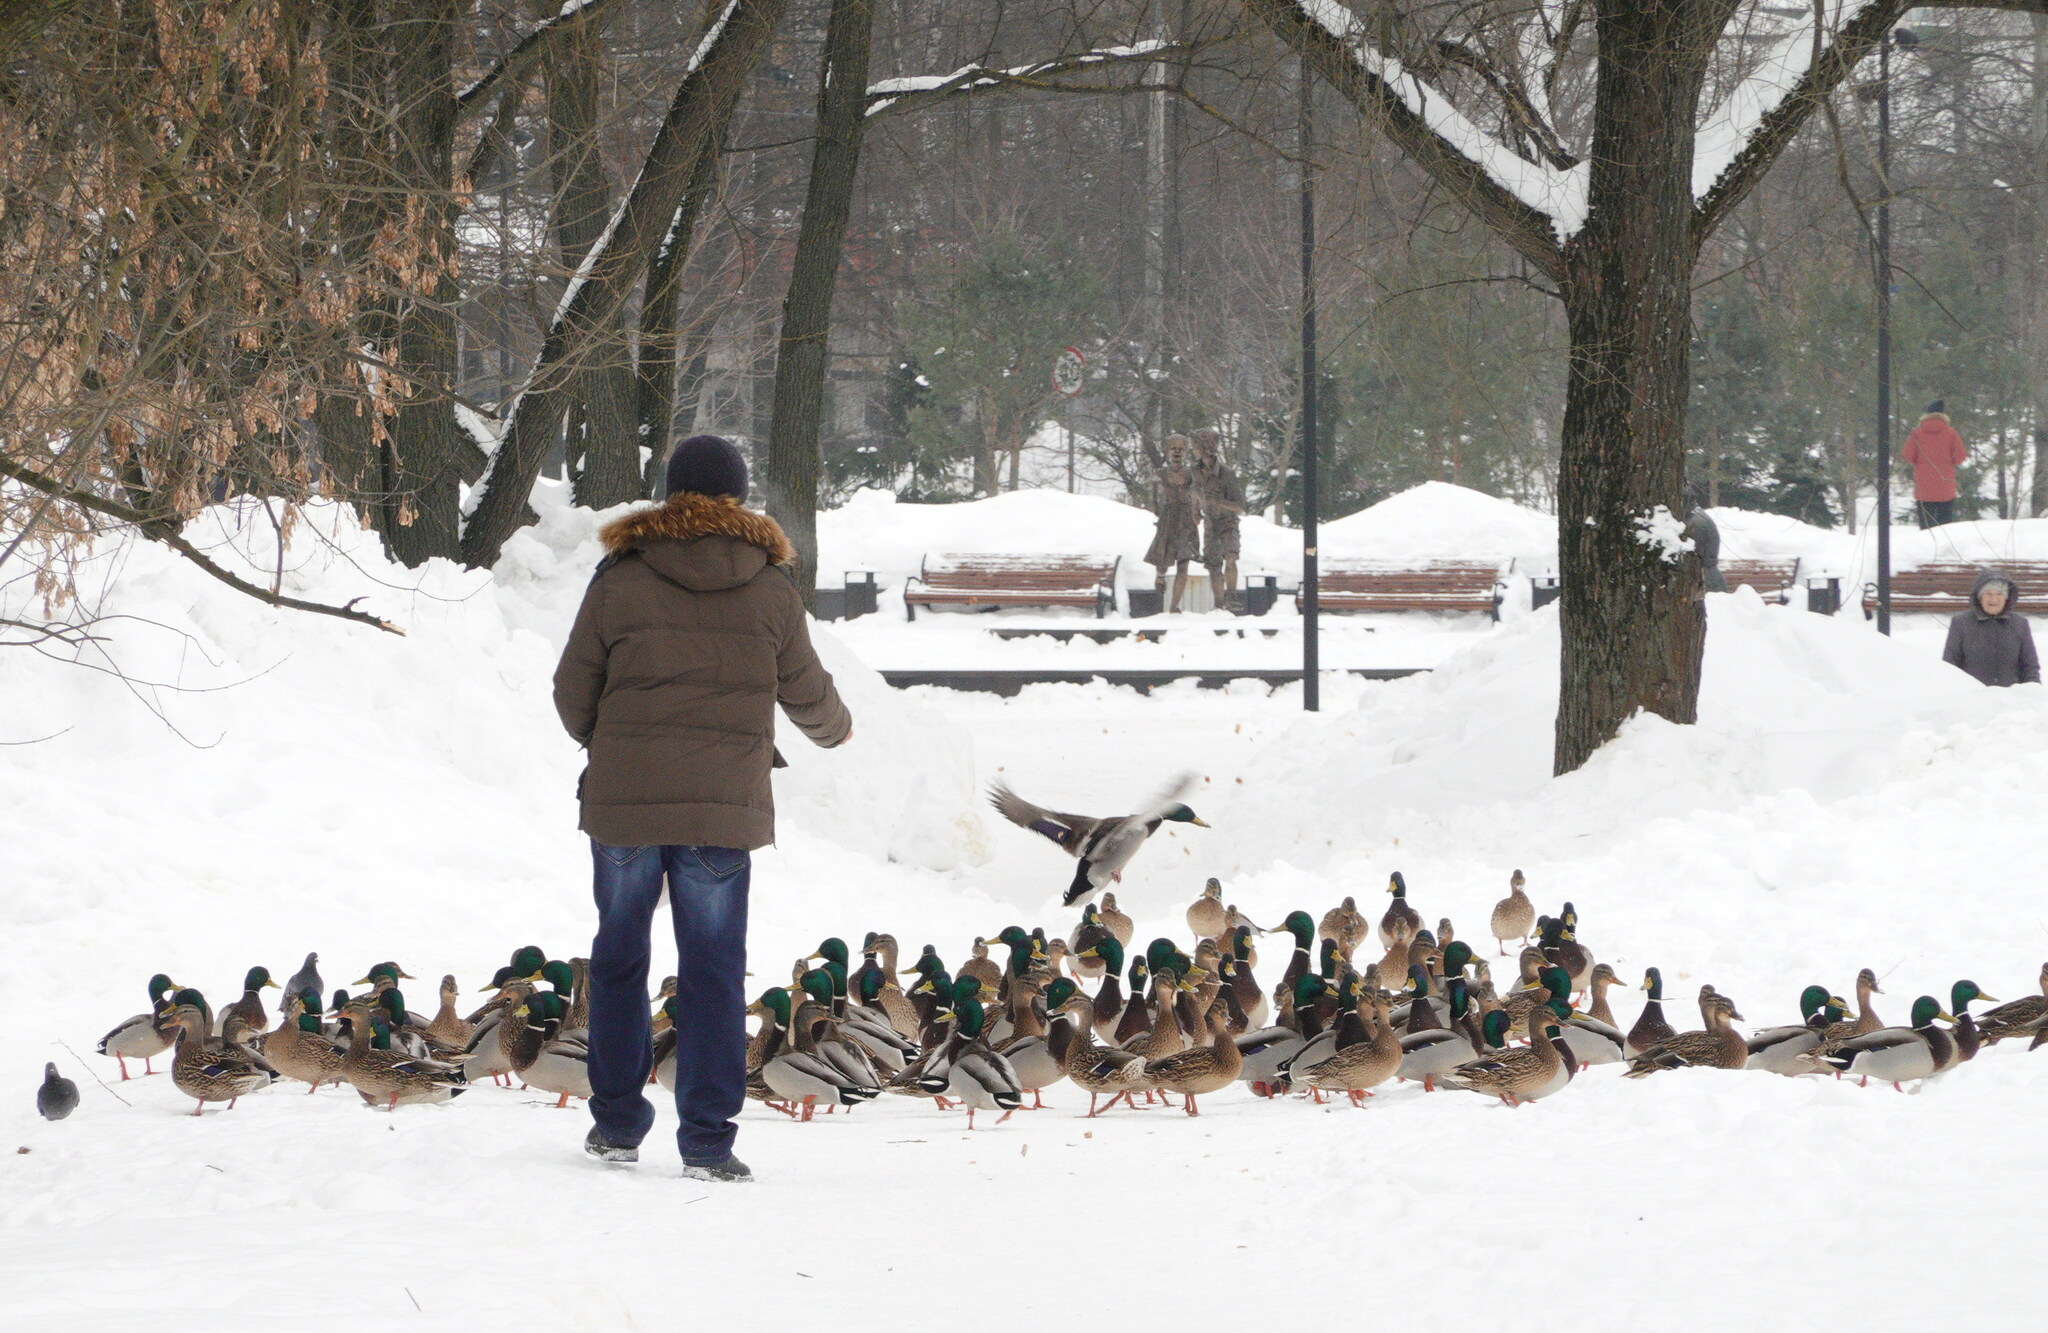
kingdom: Animalia
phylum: Chordata
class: Aves
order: Anseriformes
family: Anatidae
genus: Anas
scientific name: Anas platyrhynchos
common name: Mallard
